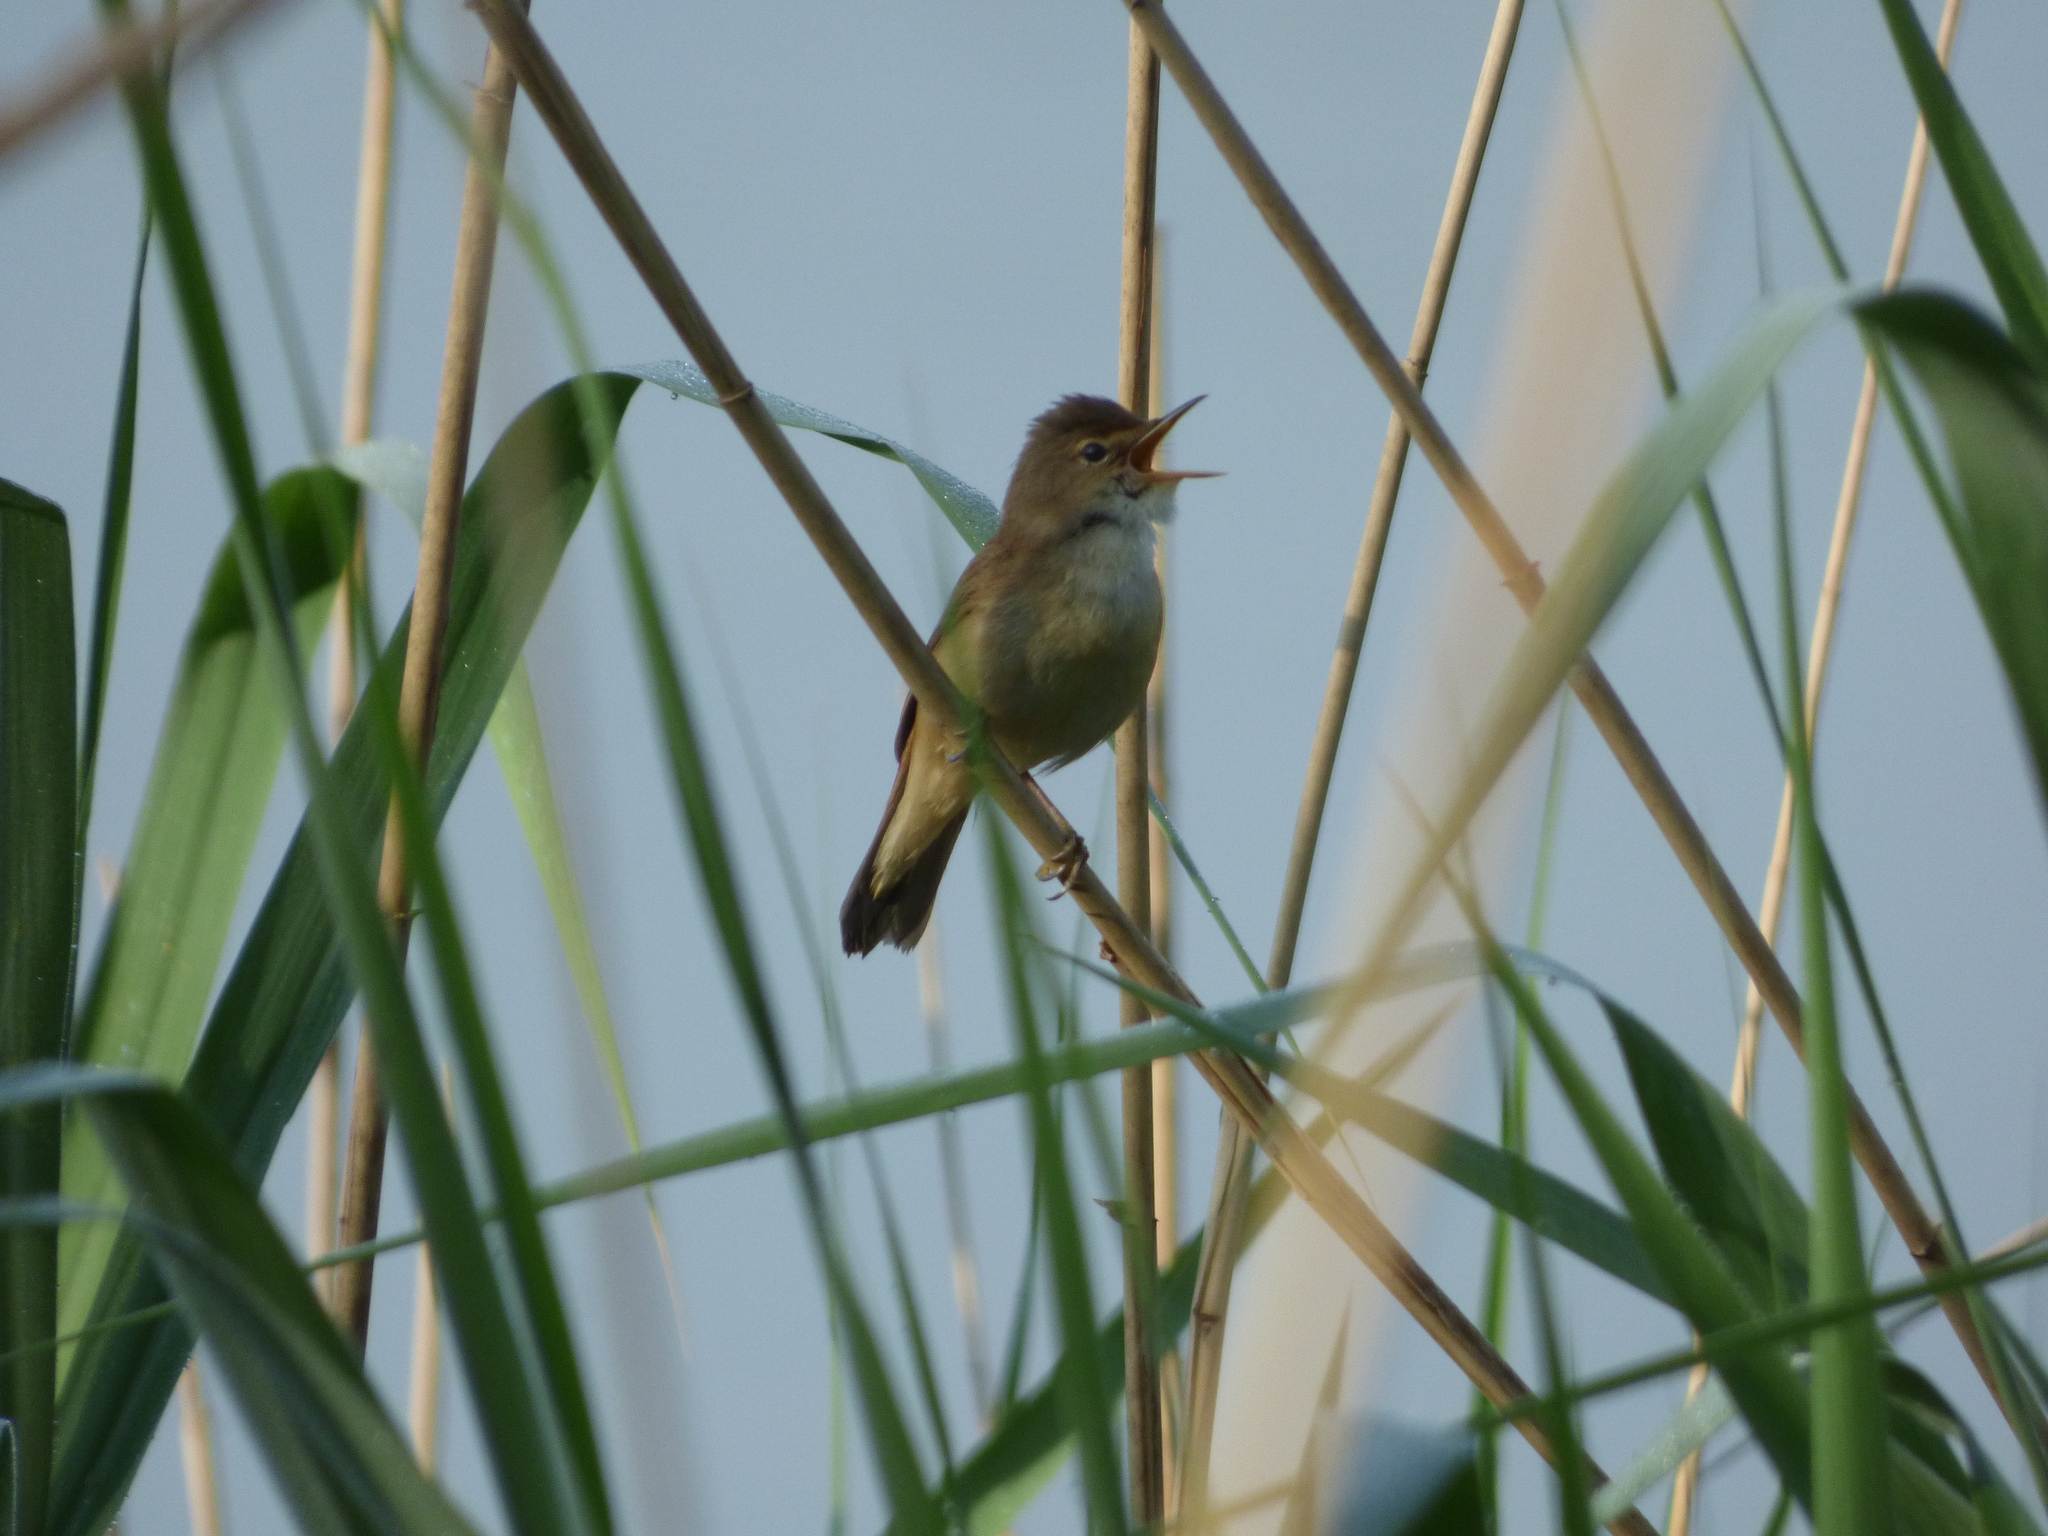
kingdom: Animalia
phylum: Chordata
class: Aves
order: Passeriformes
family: Acrocephalidae
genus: Acrocephalus
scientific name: Acrocephalus scirpaceus
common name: Eurasian reed warbler
